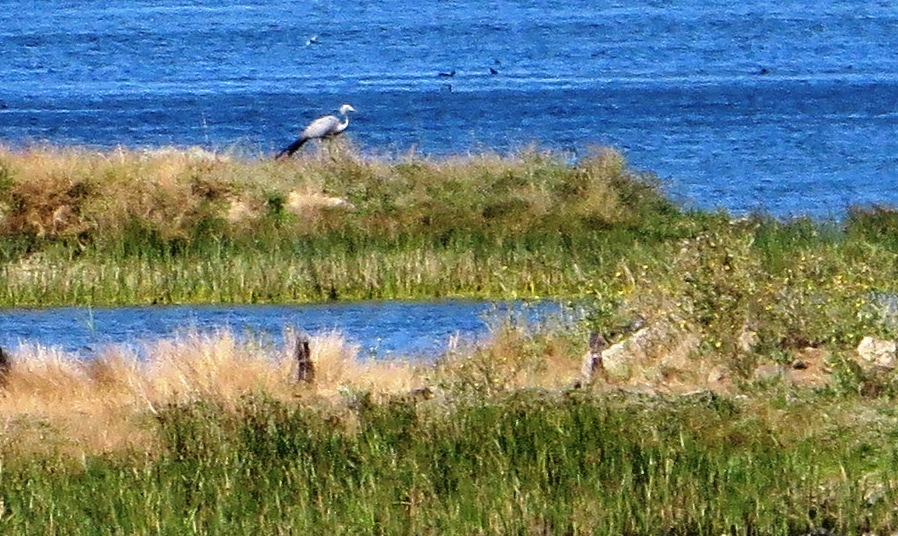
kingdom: Animalia
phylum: Chordata
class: Aves
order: Gruiformes
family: Gruidae
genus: Anthropoides
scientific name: Anthropoides paradiseus
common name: Blue crane
